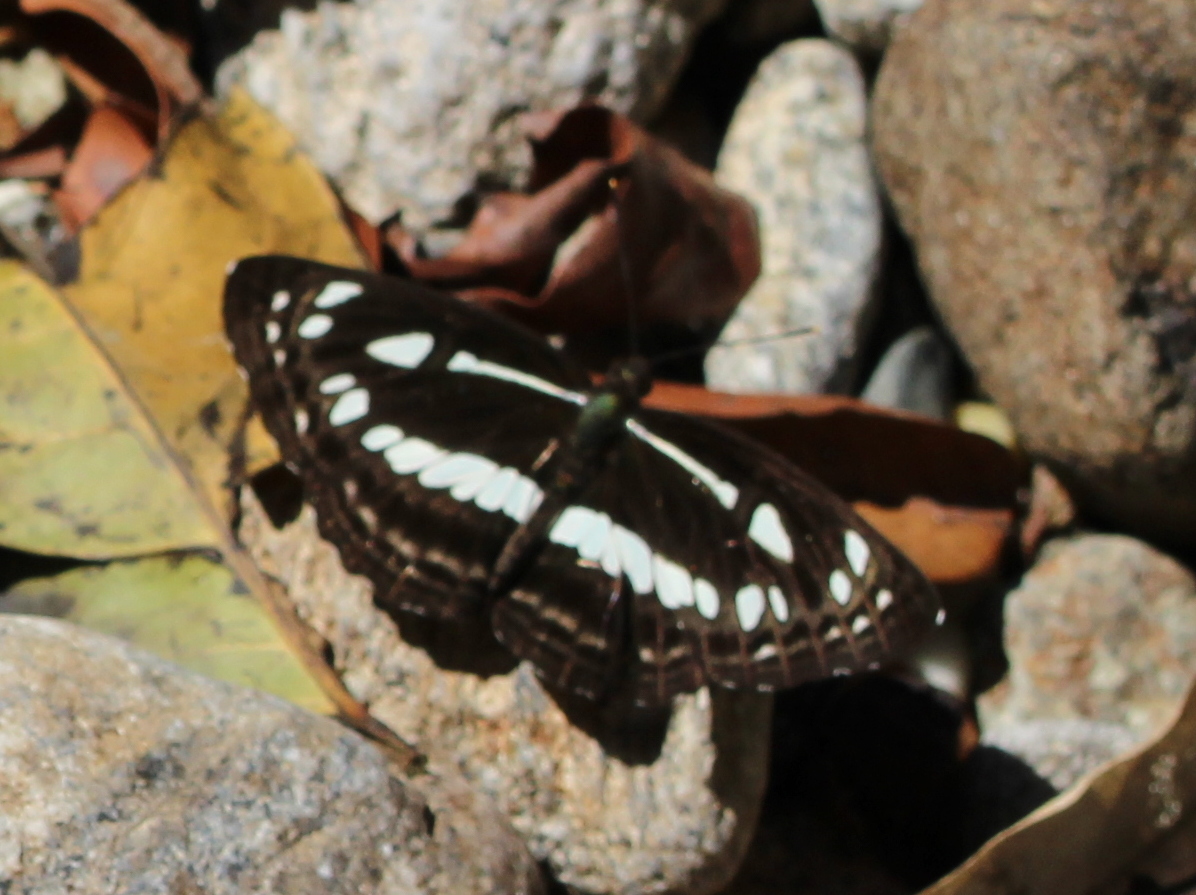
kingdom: Animalia
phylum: Arthropoda
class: Insecta
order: Lepidoptera
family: Nymphalidae
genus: Neptis
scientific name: Neptis jumbah
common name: Chestnut-streaked sailer
